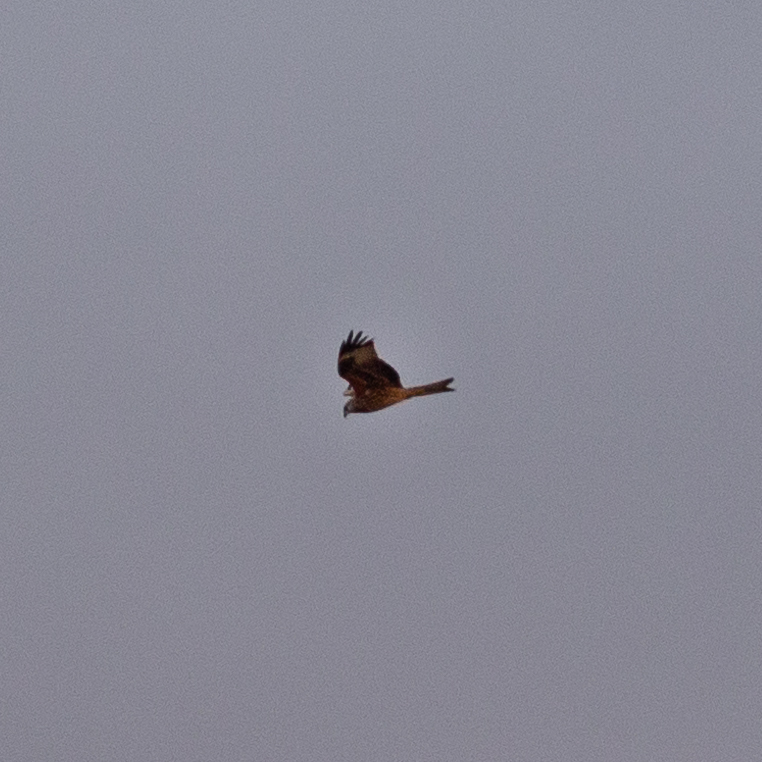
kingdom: Animalia
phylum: Chordata
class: Aves
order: Accipitriformes
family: Accipitridae
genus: Milvus
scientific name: Milvus milvus
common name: Red kite
